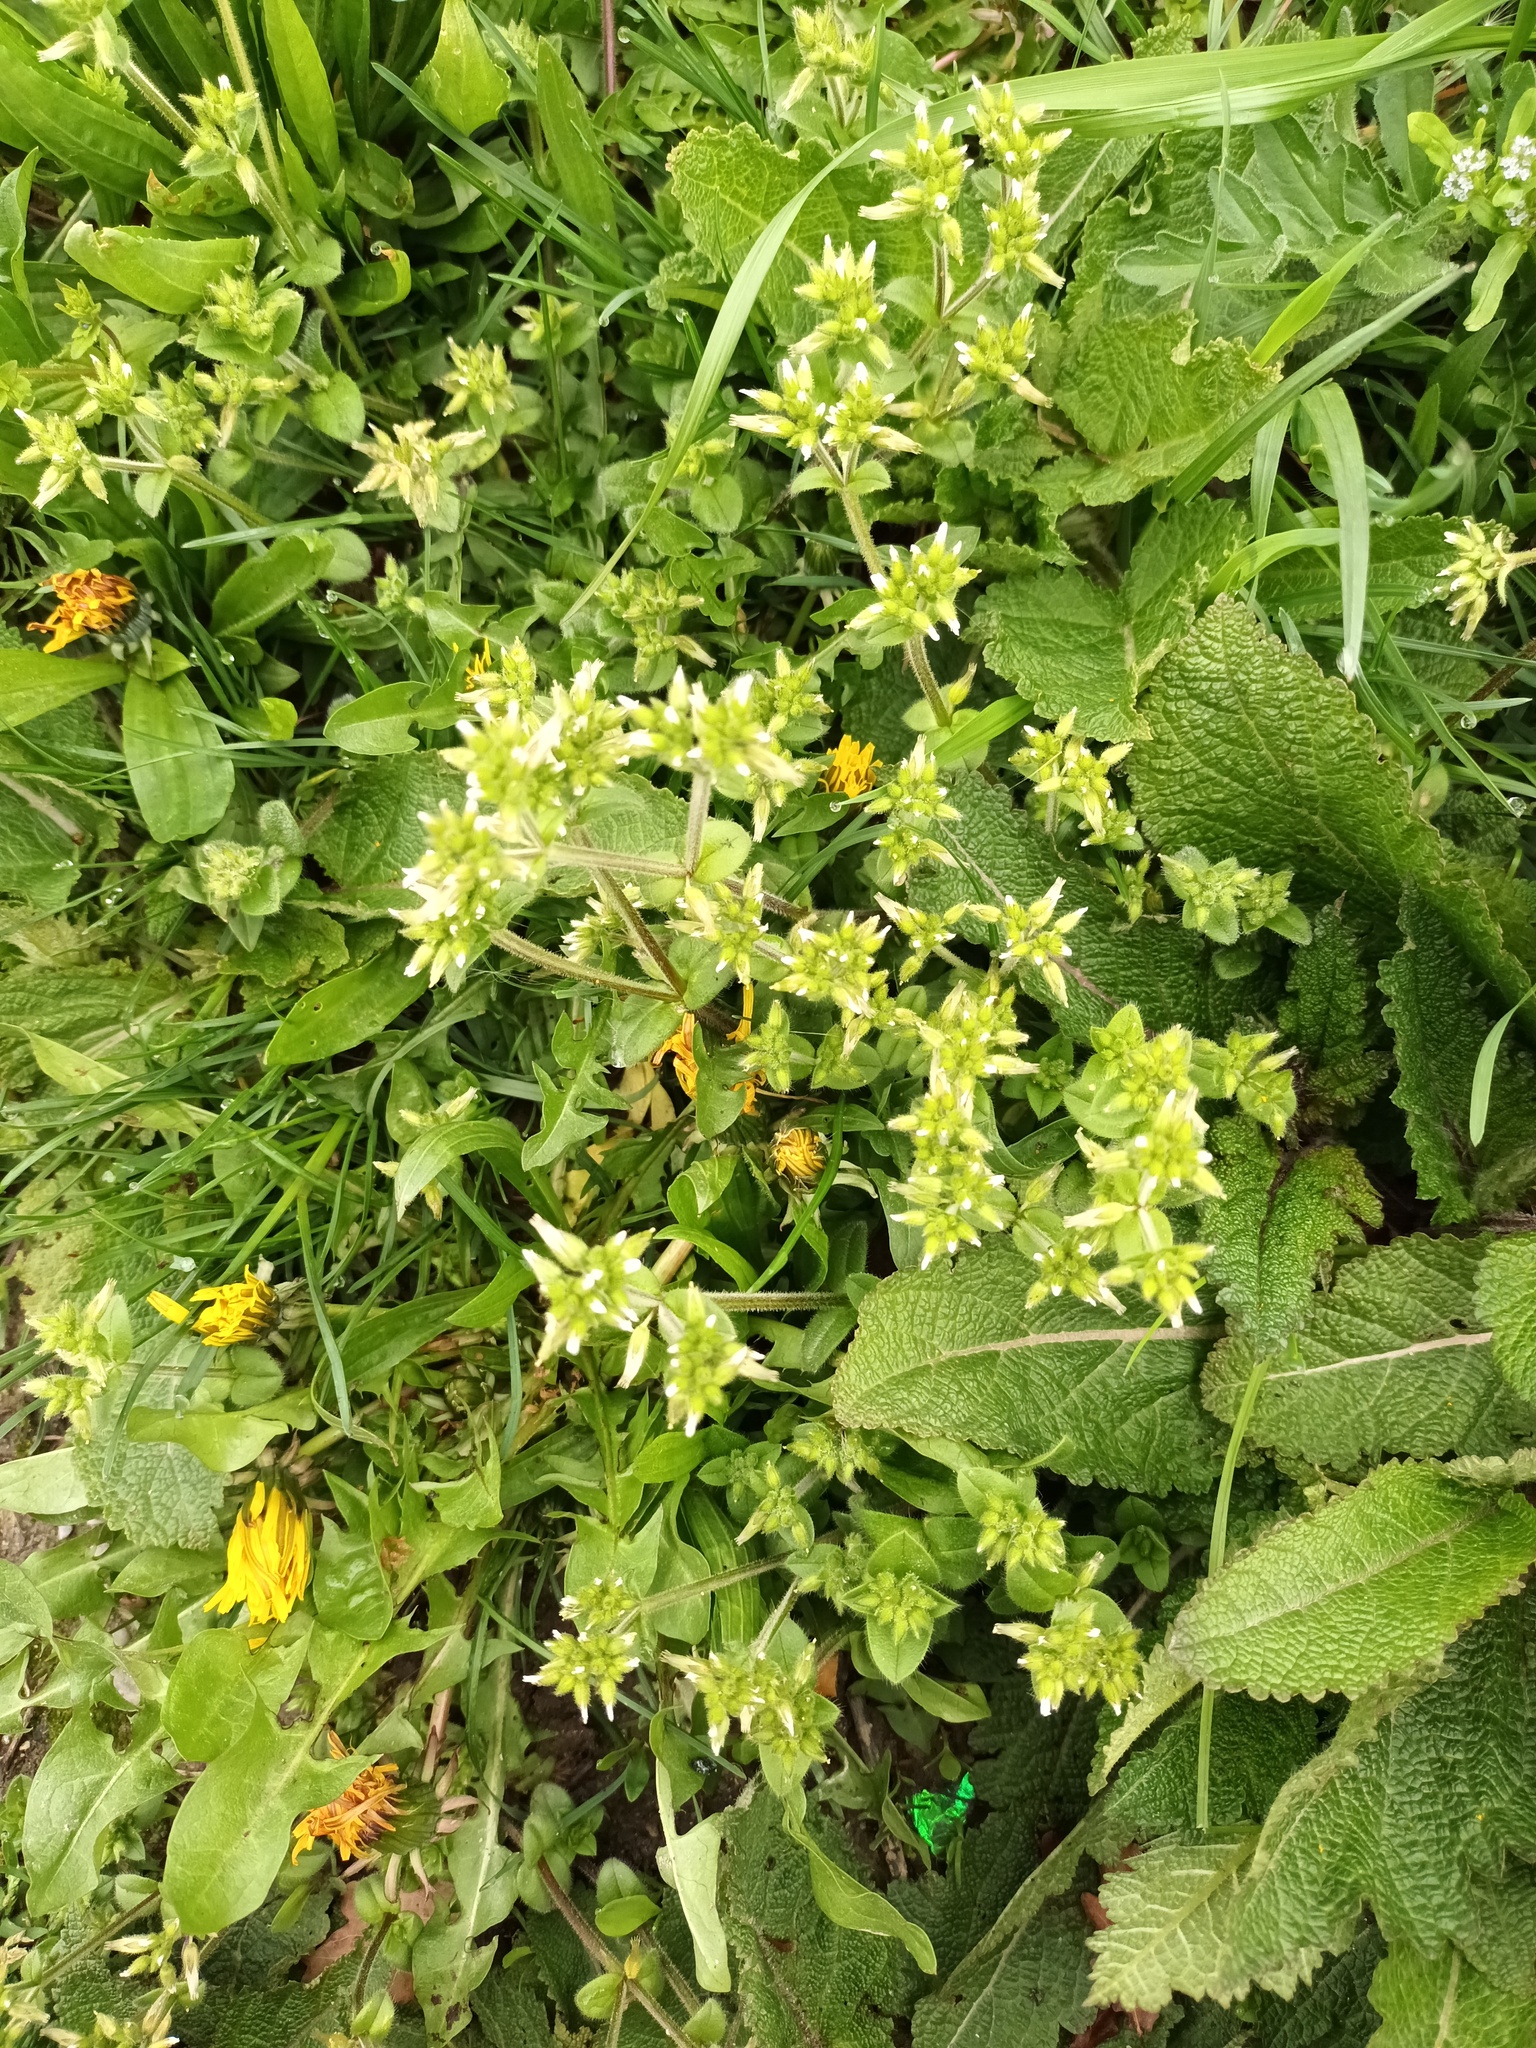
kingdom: Plantae
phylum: Tracheophyta
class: Magnoliopsida
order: Caryophyllales
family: Caryophyllaceae
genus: Cerastium
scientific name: Cerastium glomeratum
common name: Sticky chickweed
